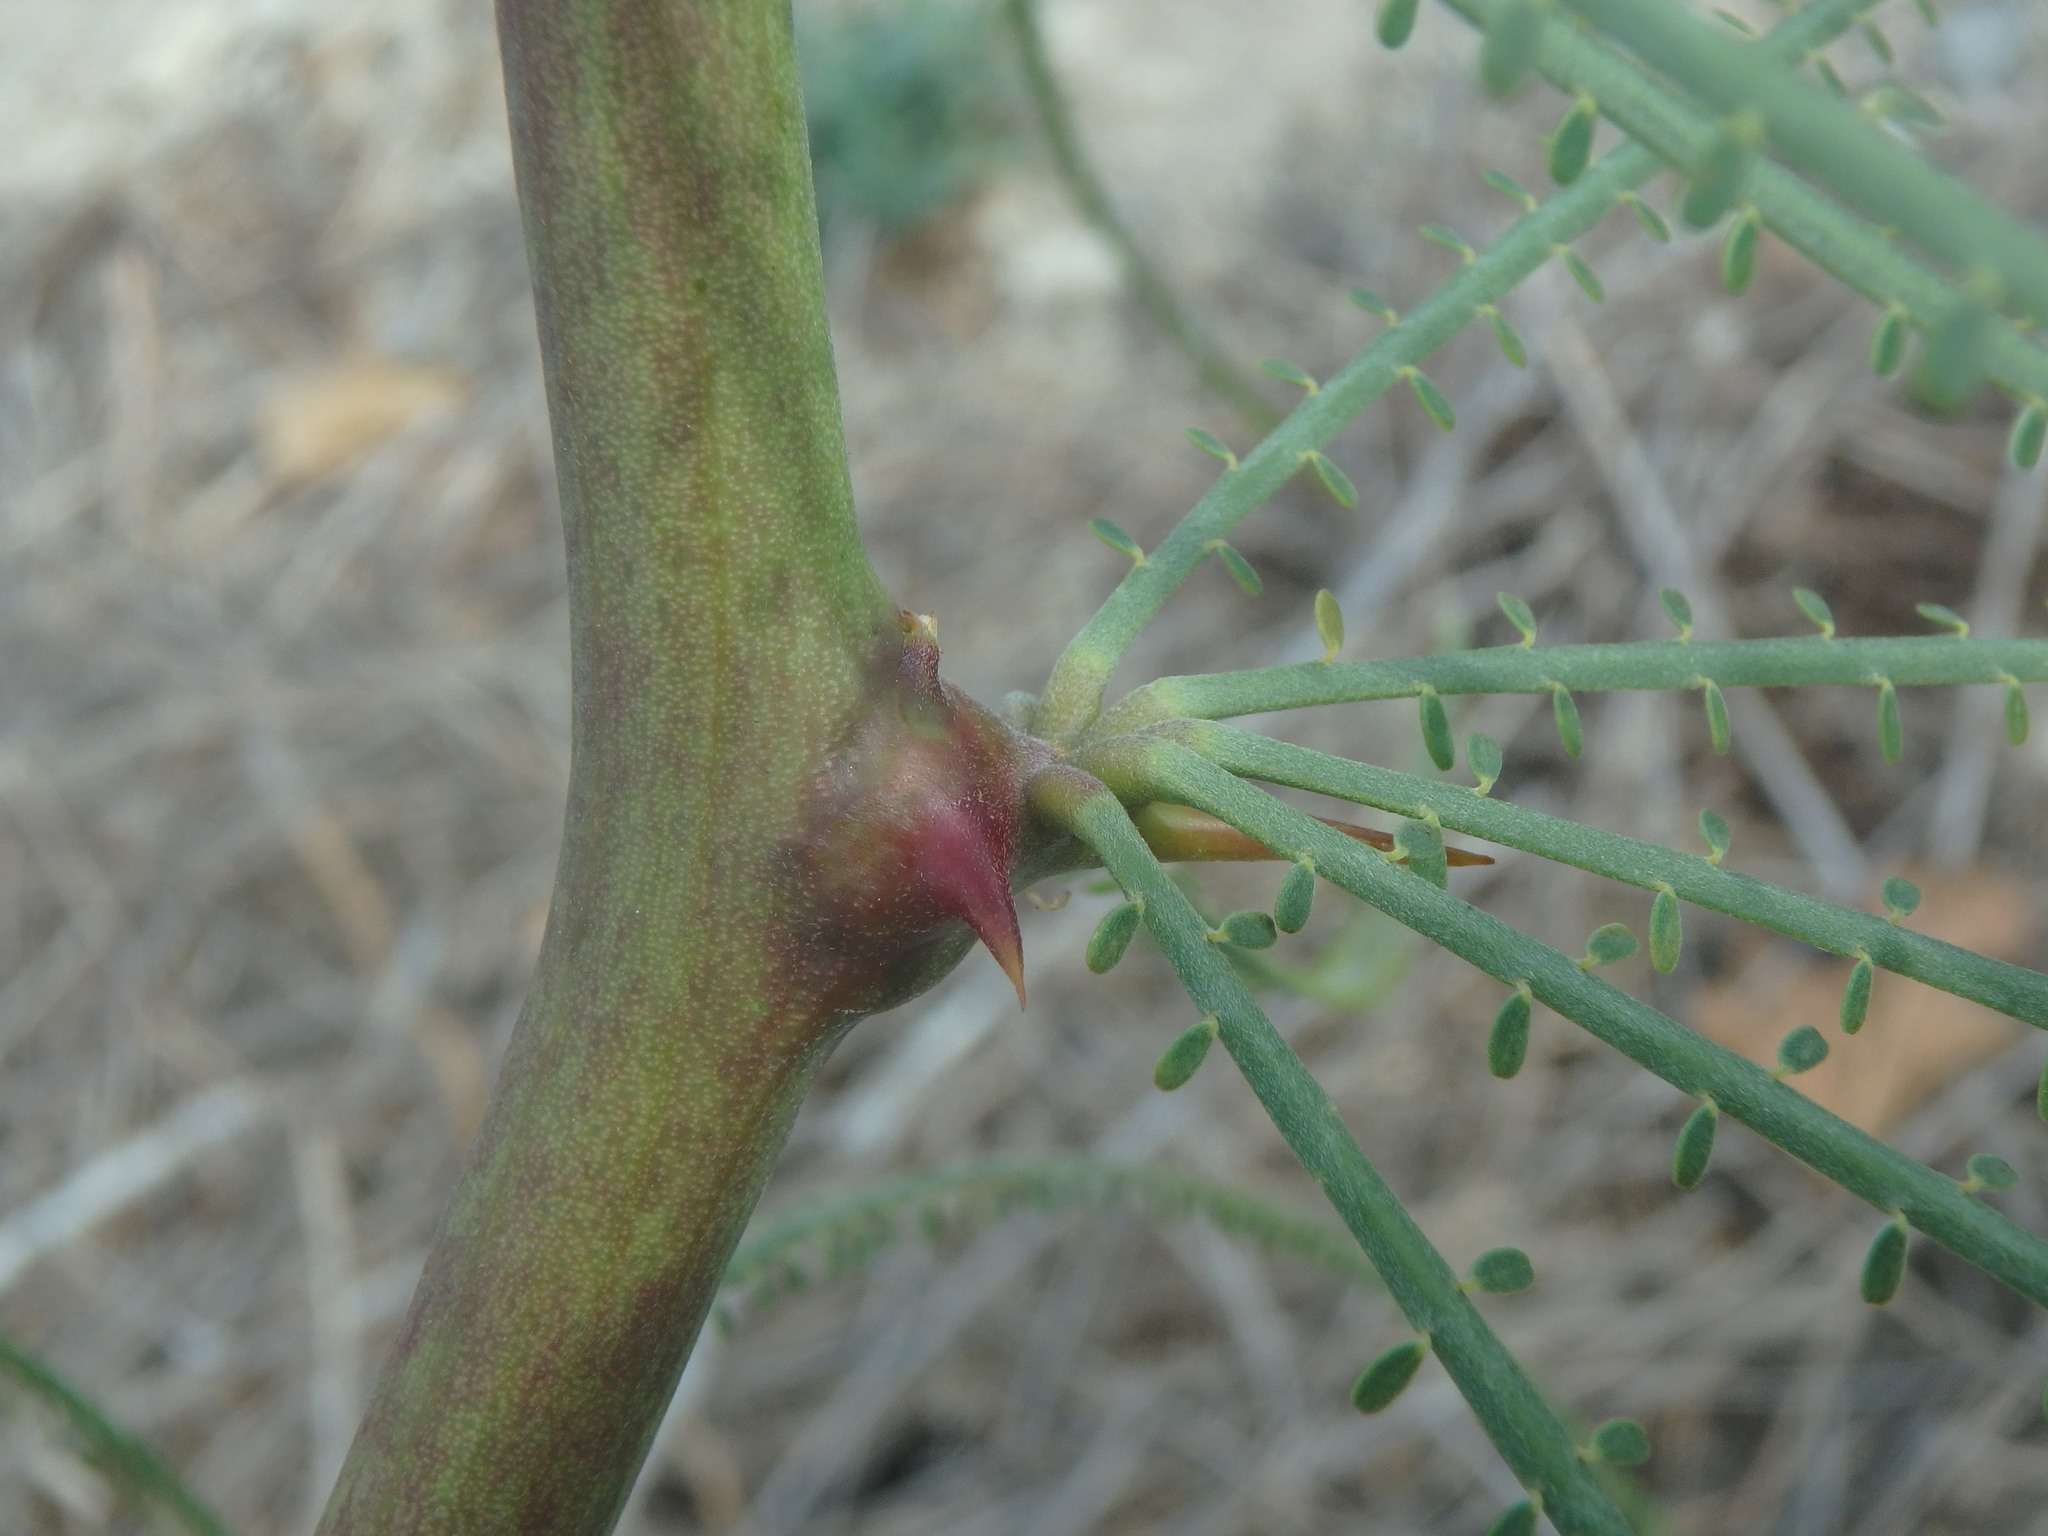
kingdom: Plantae
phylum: Tracheophyta
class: Magnoliopsida
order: Fabales
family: Fabaceae
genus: Parkinsonia
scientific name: Parkinsonia aculeata
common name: Jerusalem thorn
